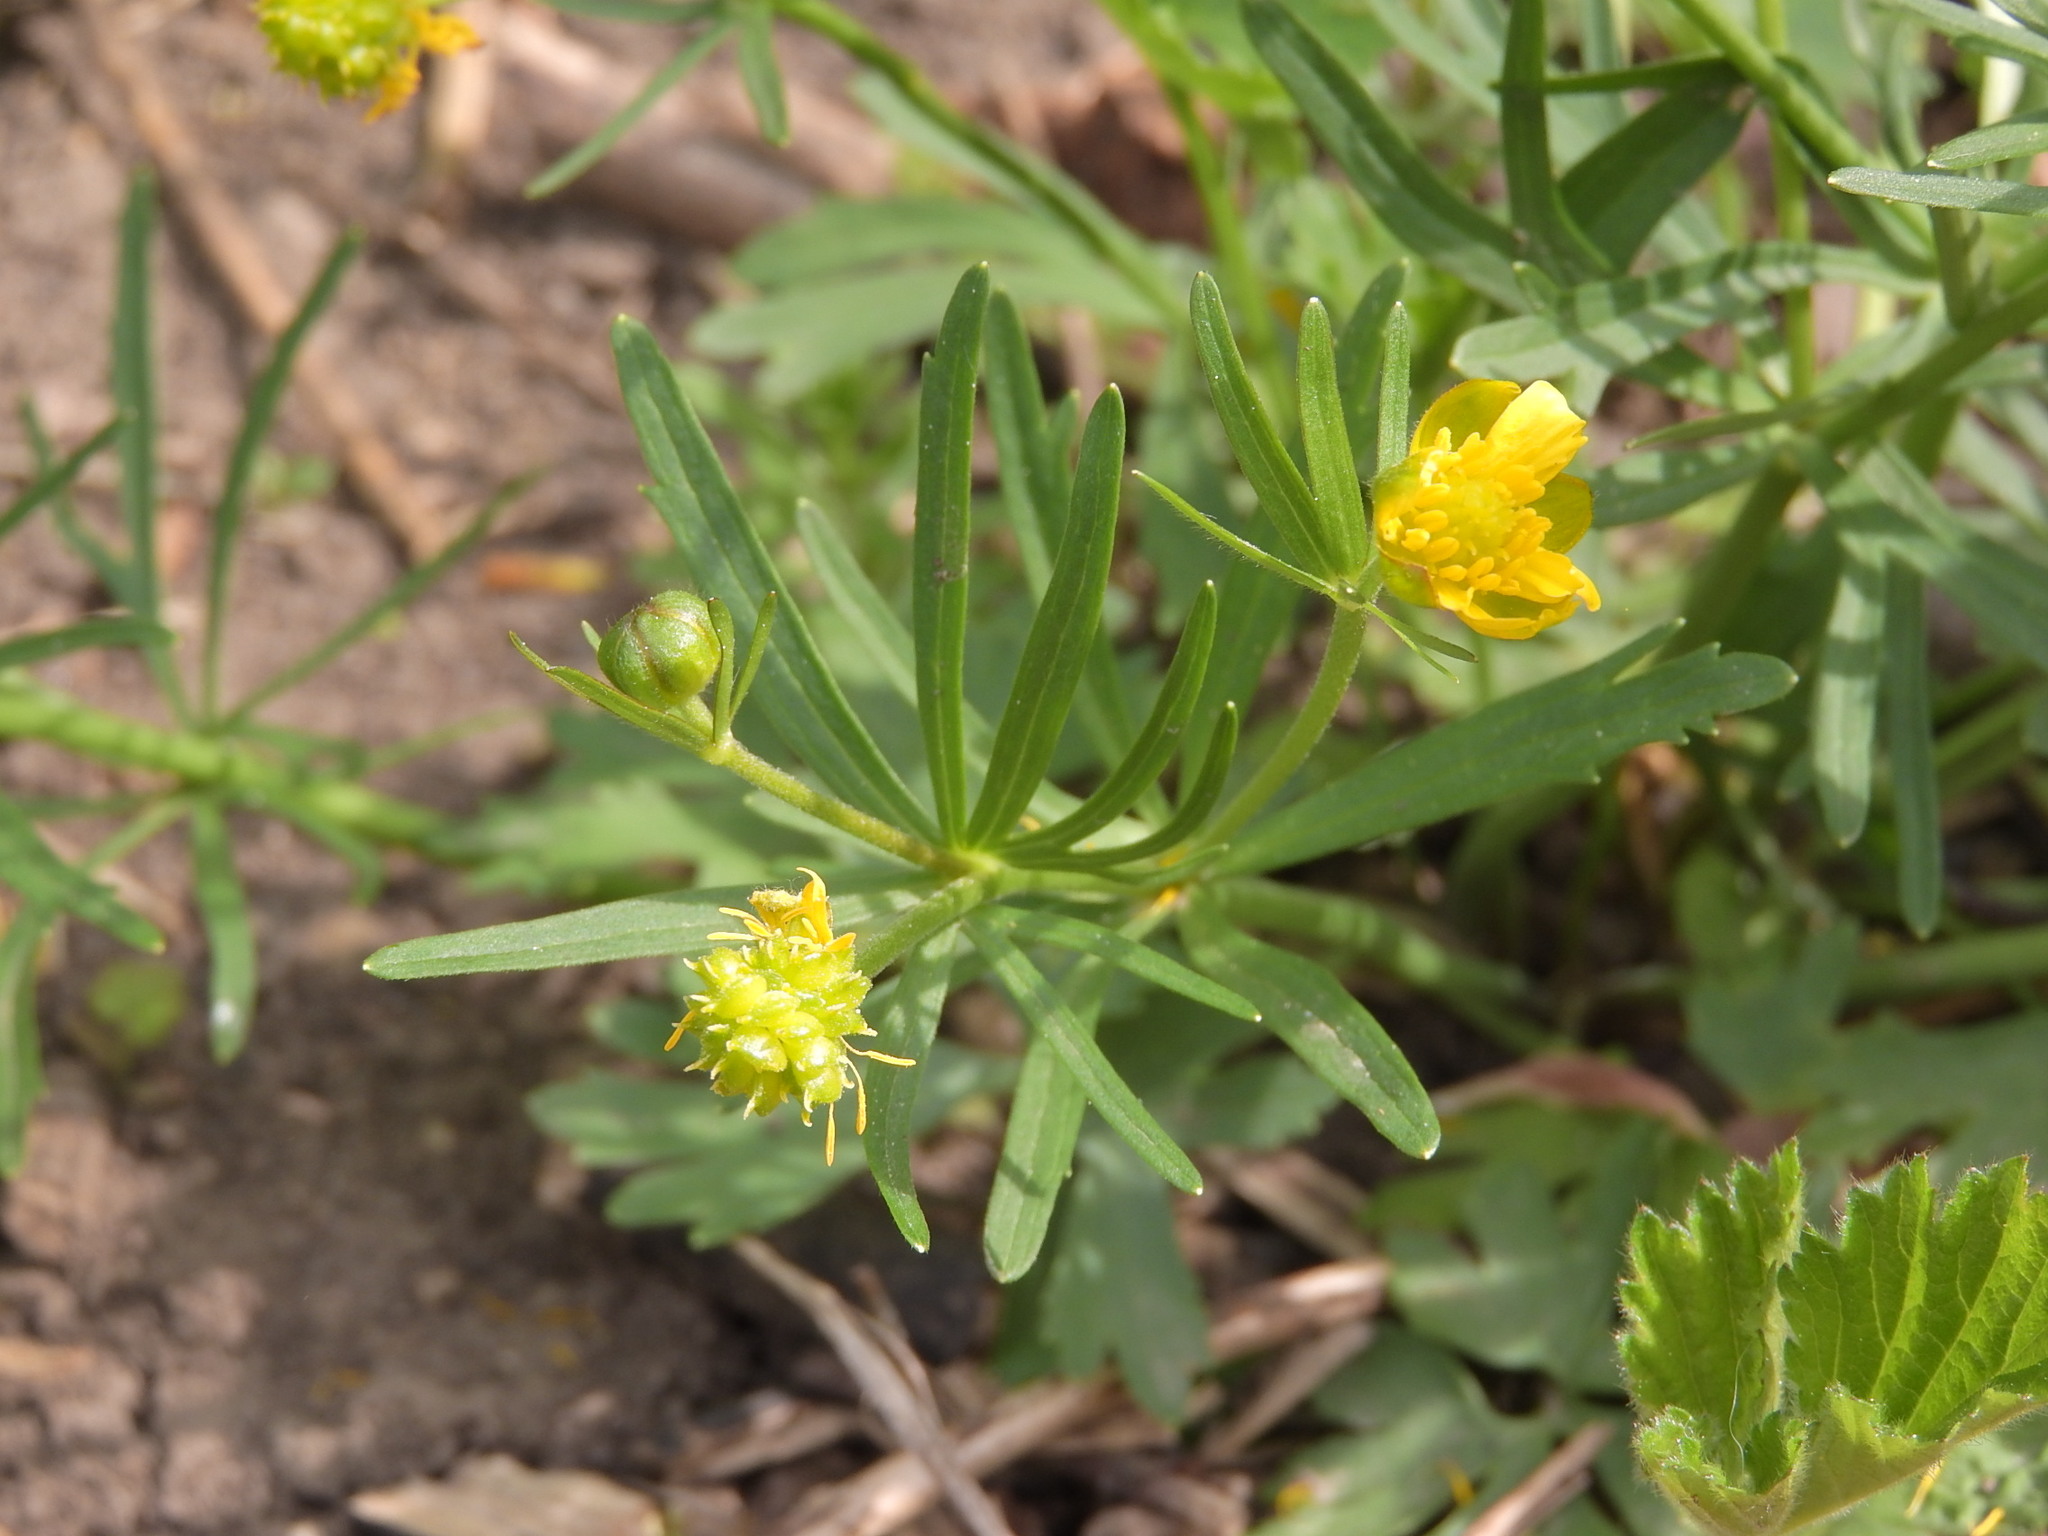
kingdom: Plantae
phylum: Tracheophyta
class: Magnoliopsida
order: Ranunculales
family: Ranunculaceae
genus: Ranunculus
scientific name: Ranunculus auricomus
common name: Goldilocks buttercup
